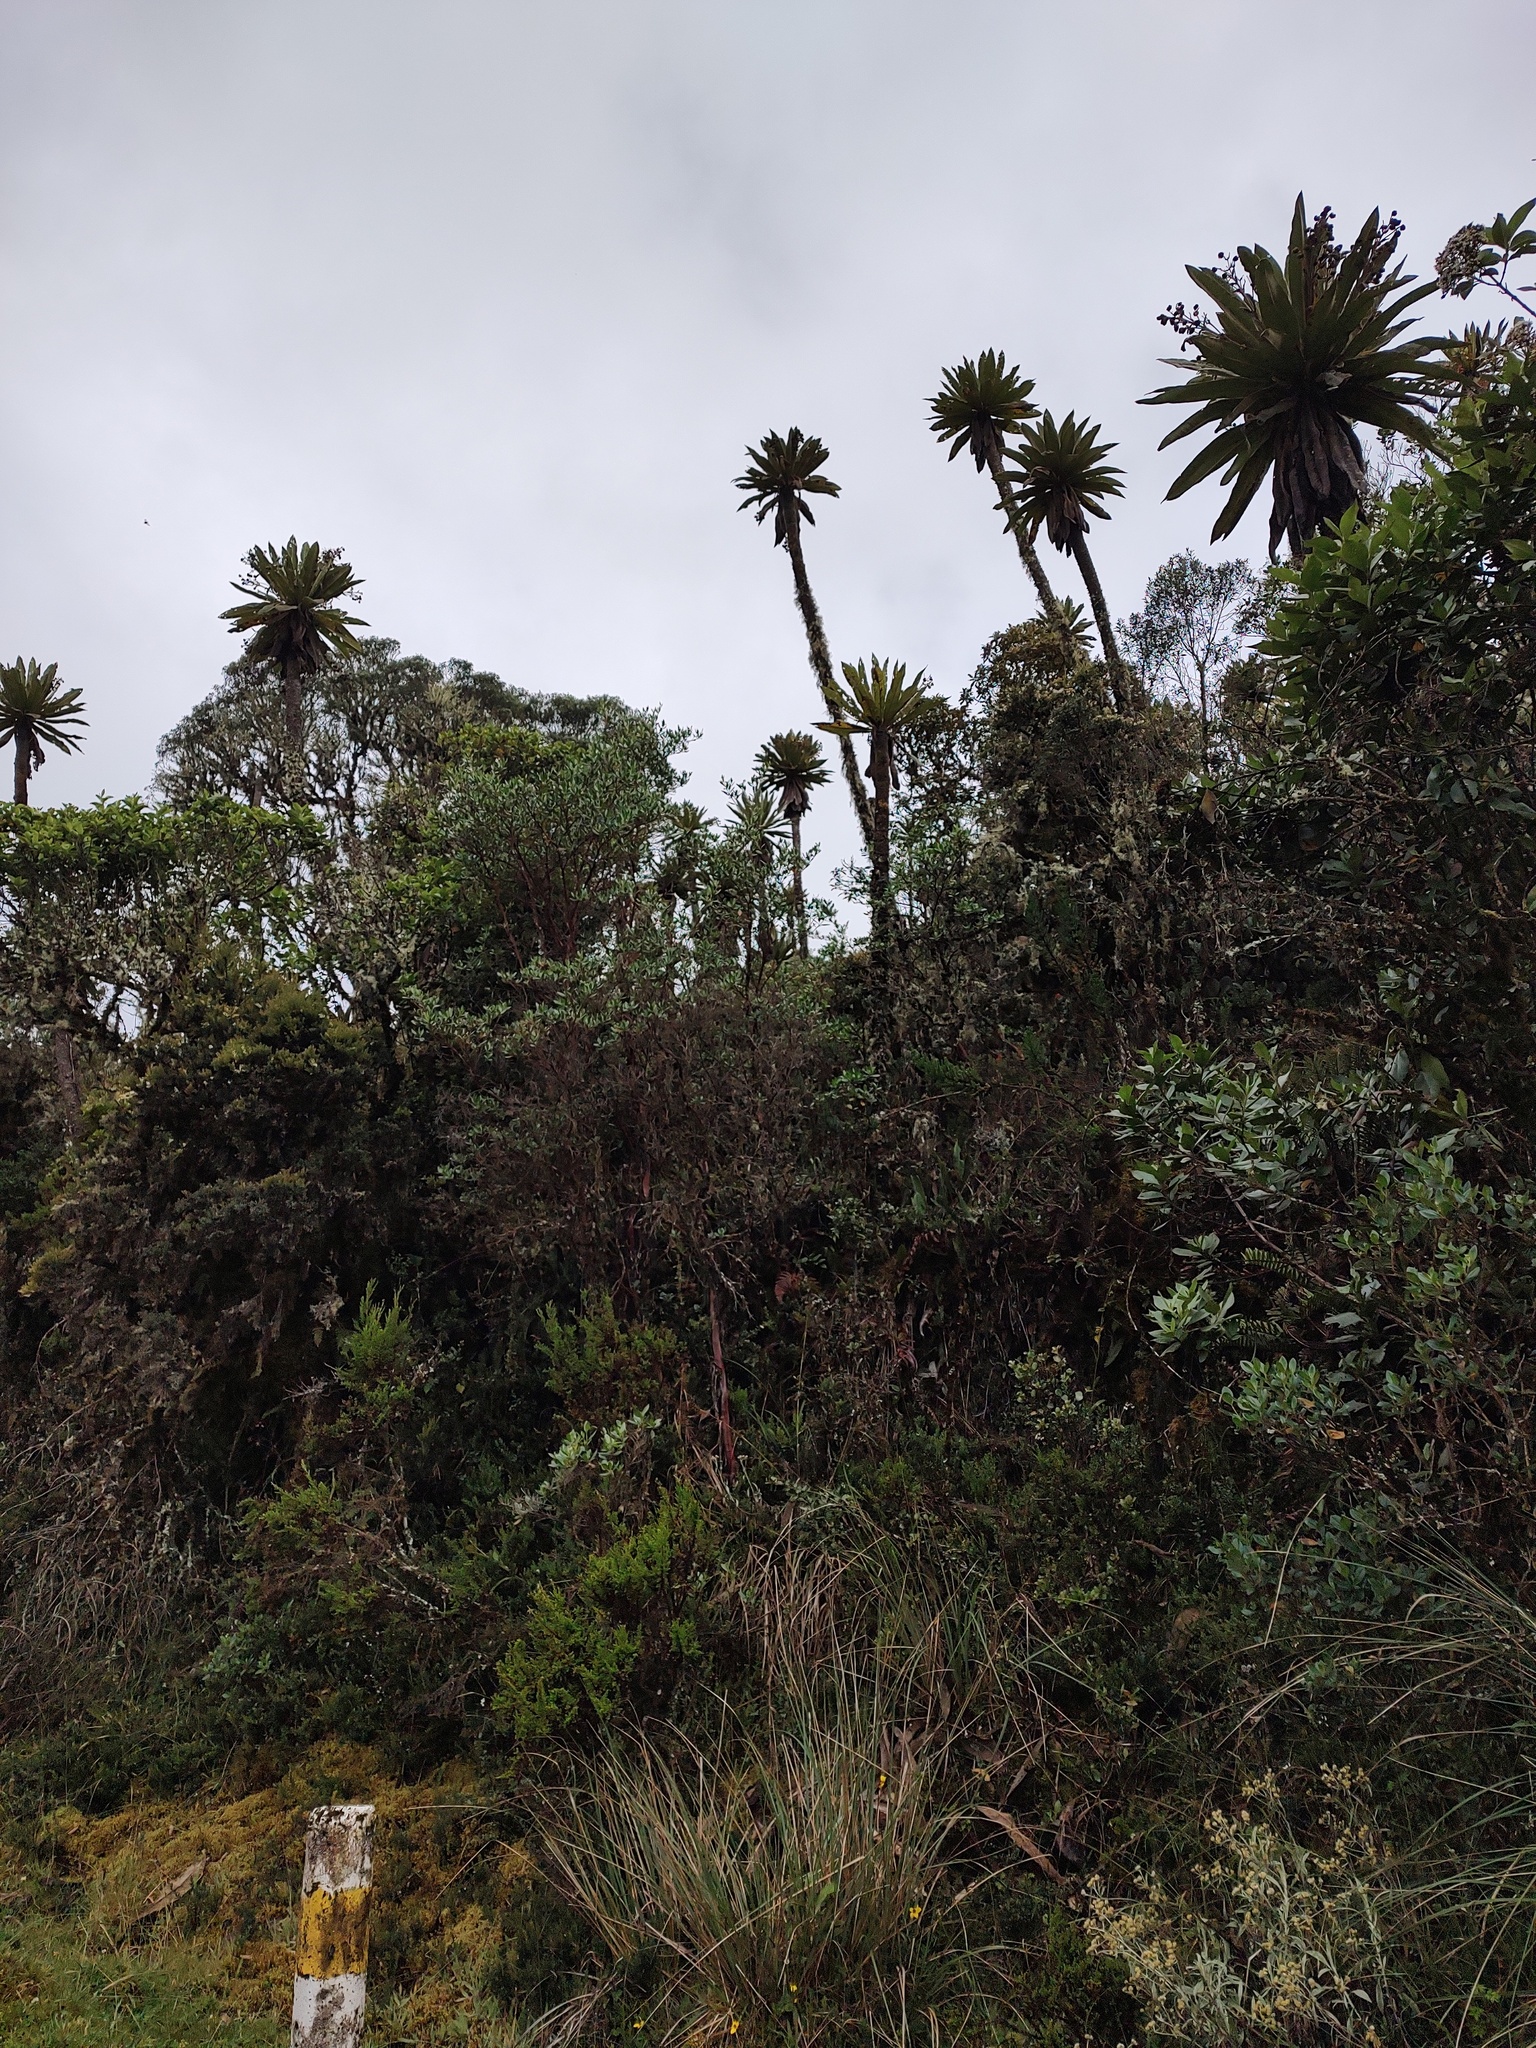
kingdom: Plantae
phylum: Tracheophyta
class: Magnoliopsida
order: Asterales
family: Asteraceae
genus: Espeletia
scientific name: Espeletia uribei
